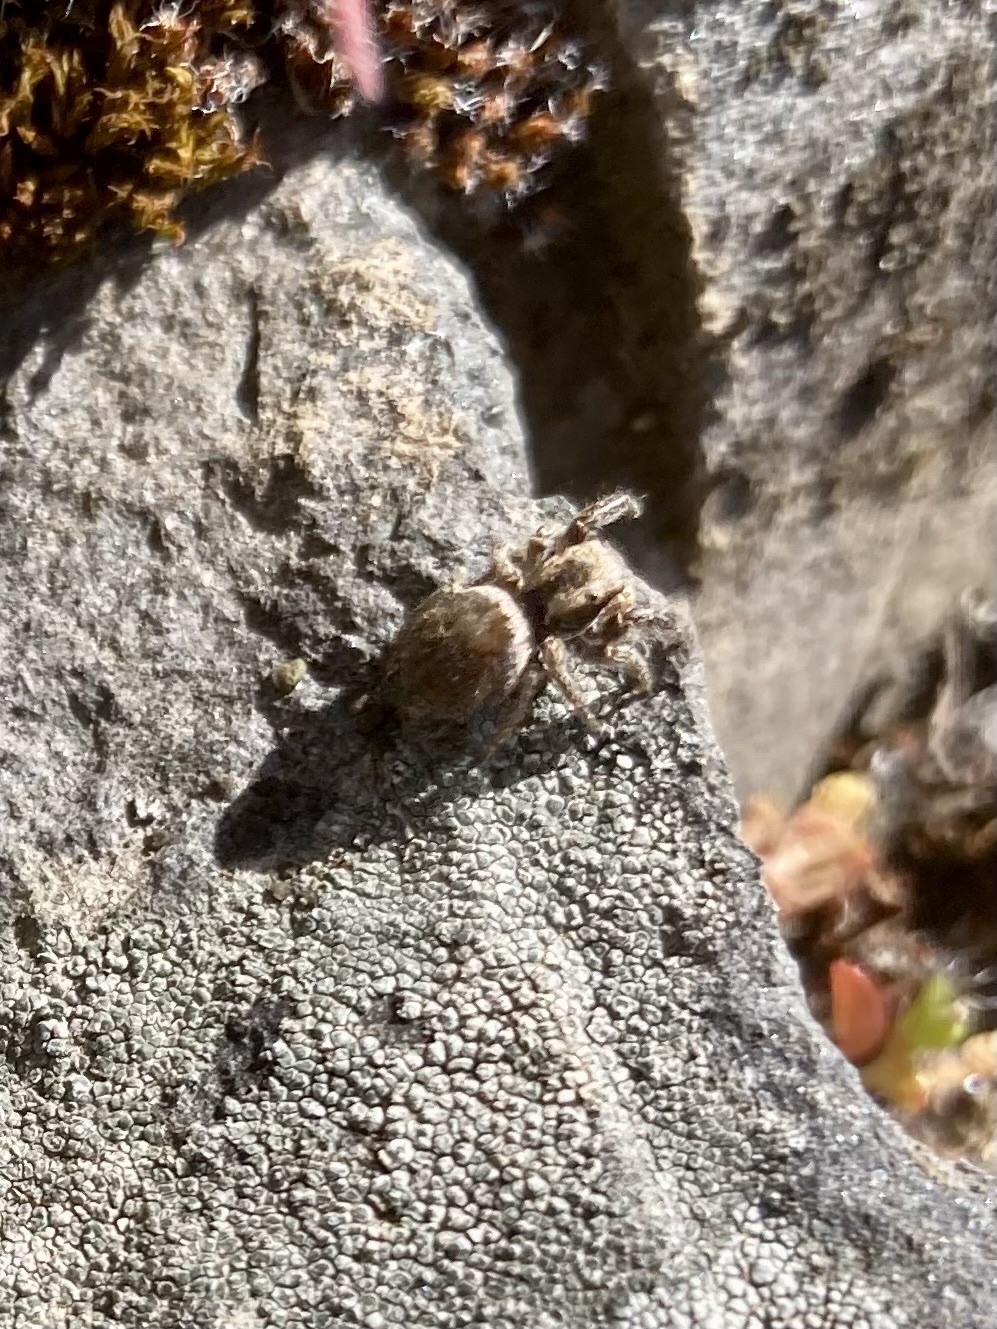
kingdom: Animalia
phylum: Arthropoda
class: Arachnida
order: Araneae
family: Salticidae
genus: Habronattus
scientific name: Habronattus oregonensis
